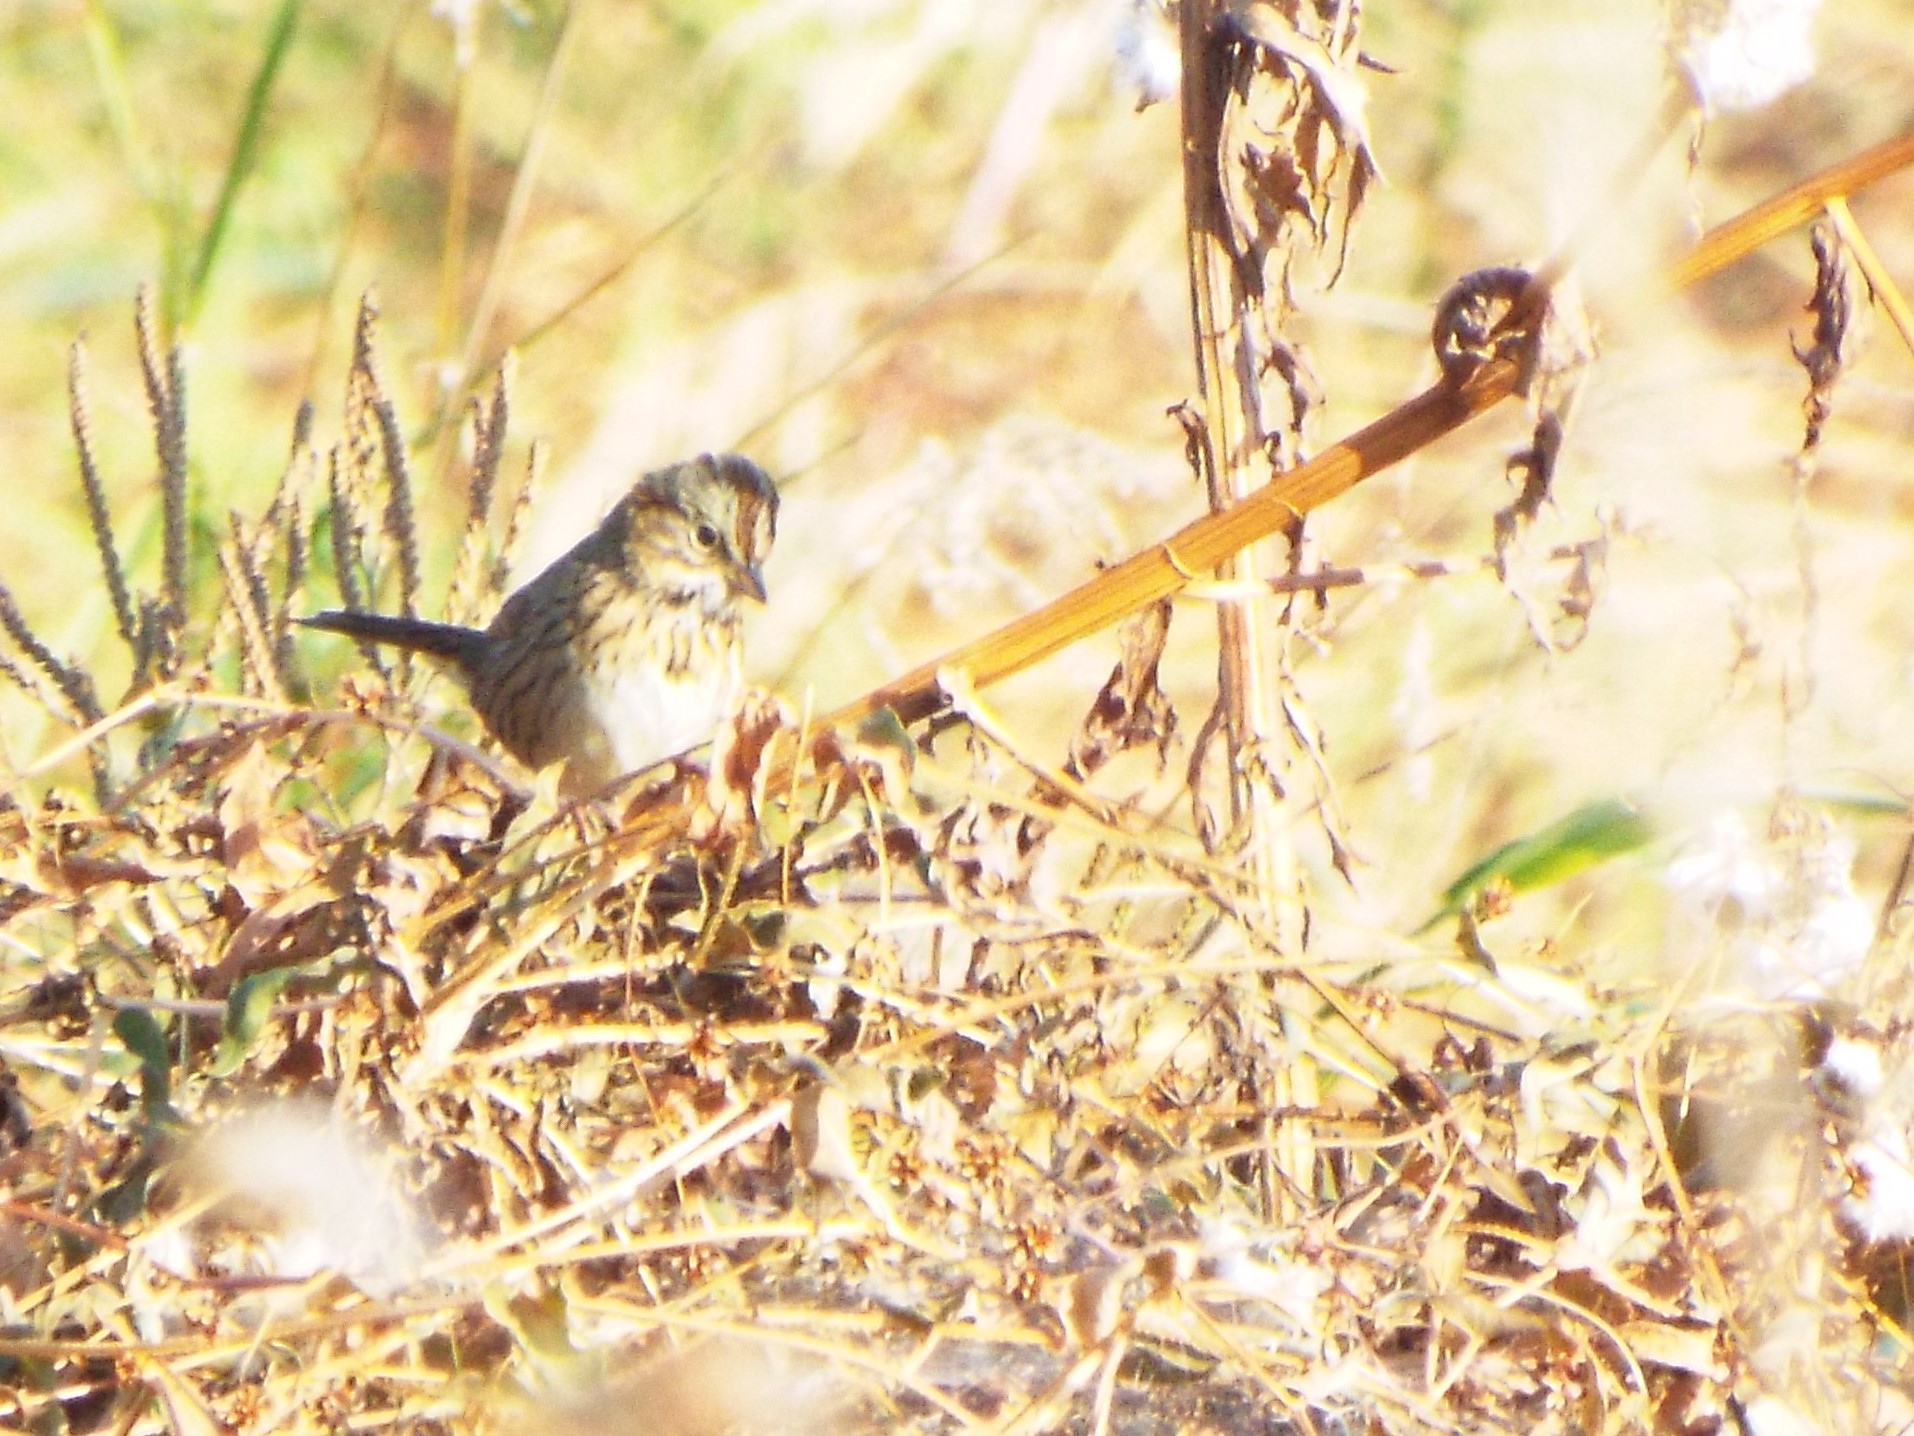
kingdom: Animalia
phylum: Chordata
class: Aves
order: Passeriformes
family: Passerellidae
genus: Melospiza
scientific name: Melospiza lincolnii
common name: Lincoln's sparrow
